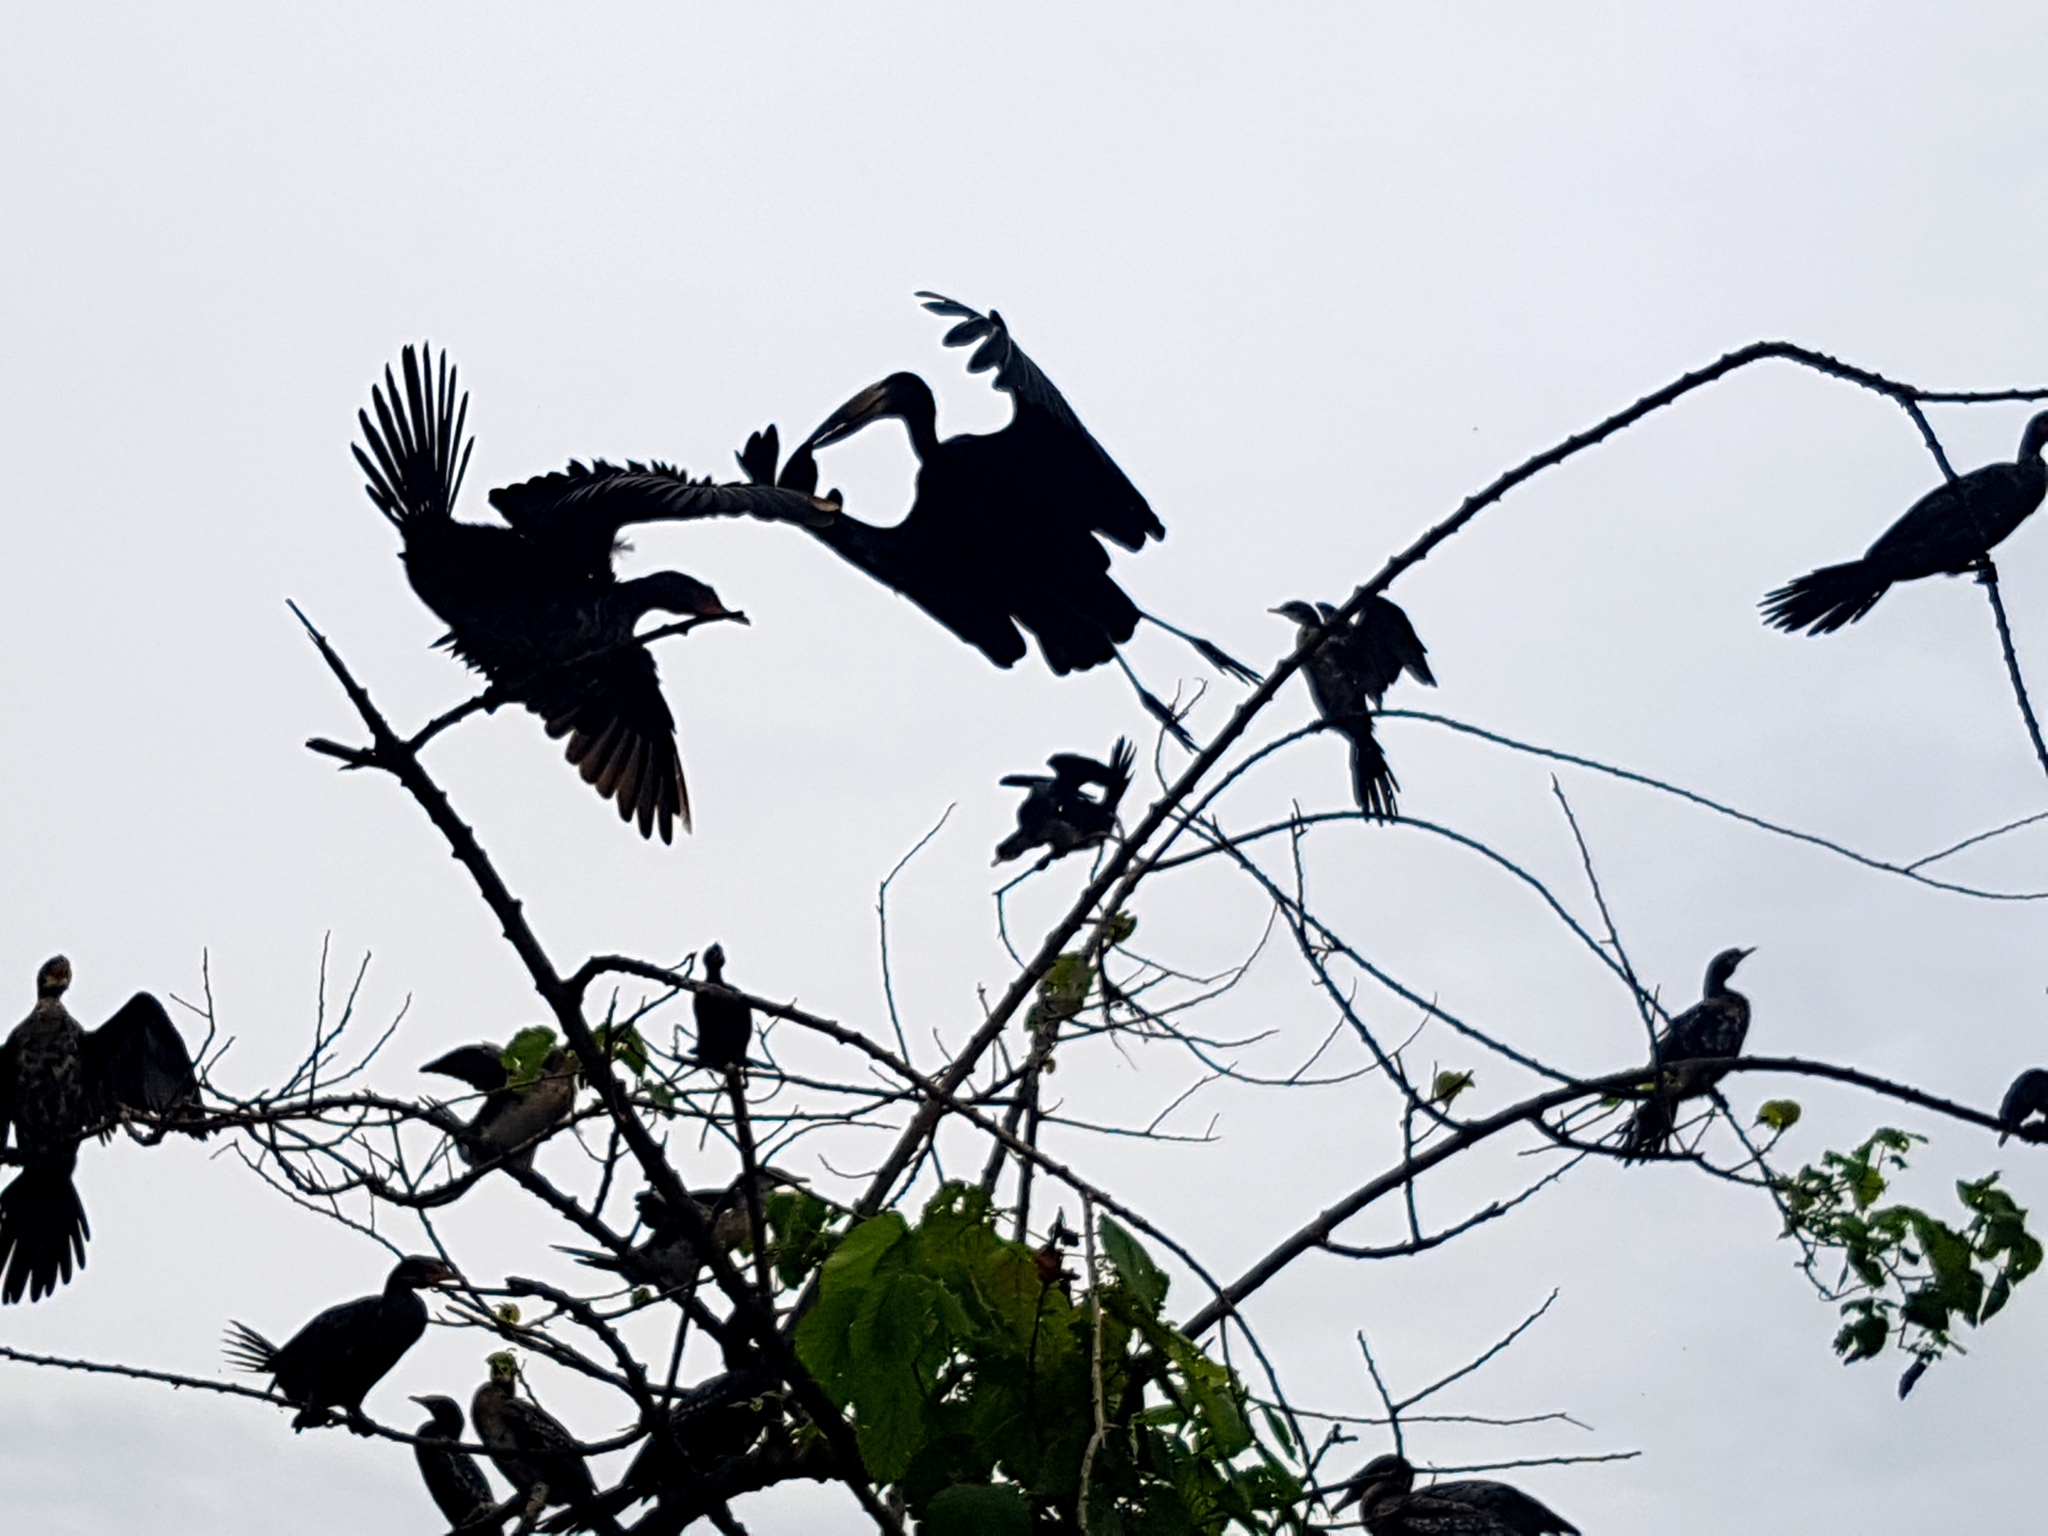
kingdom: Animalia
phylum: Chordata
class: Aves
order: Ciconiiformes
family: Ciconiidae
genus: Anastomus
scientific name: Anastomus lamelligerus
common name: African openbill
